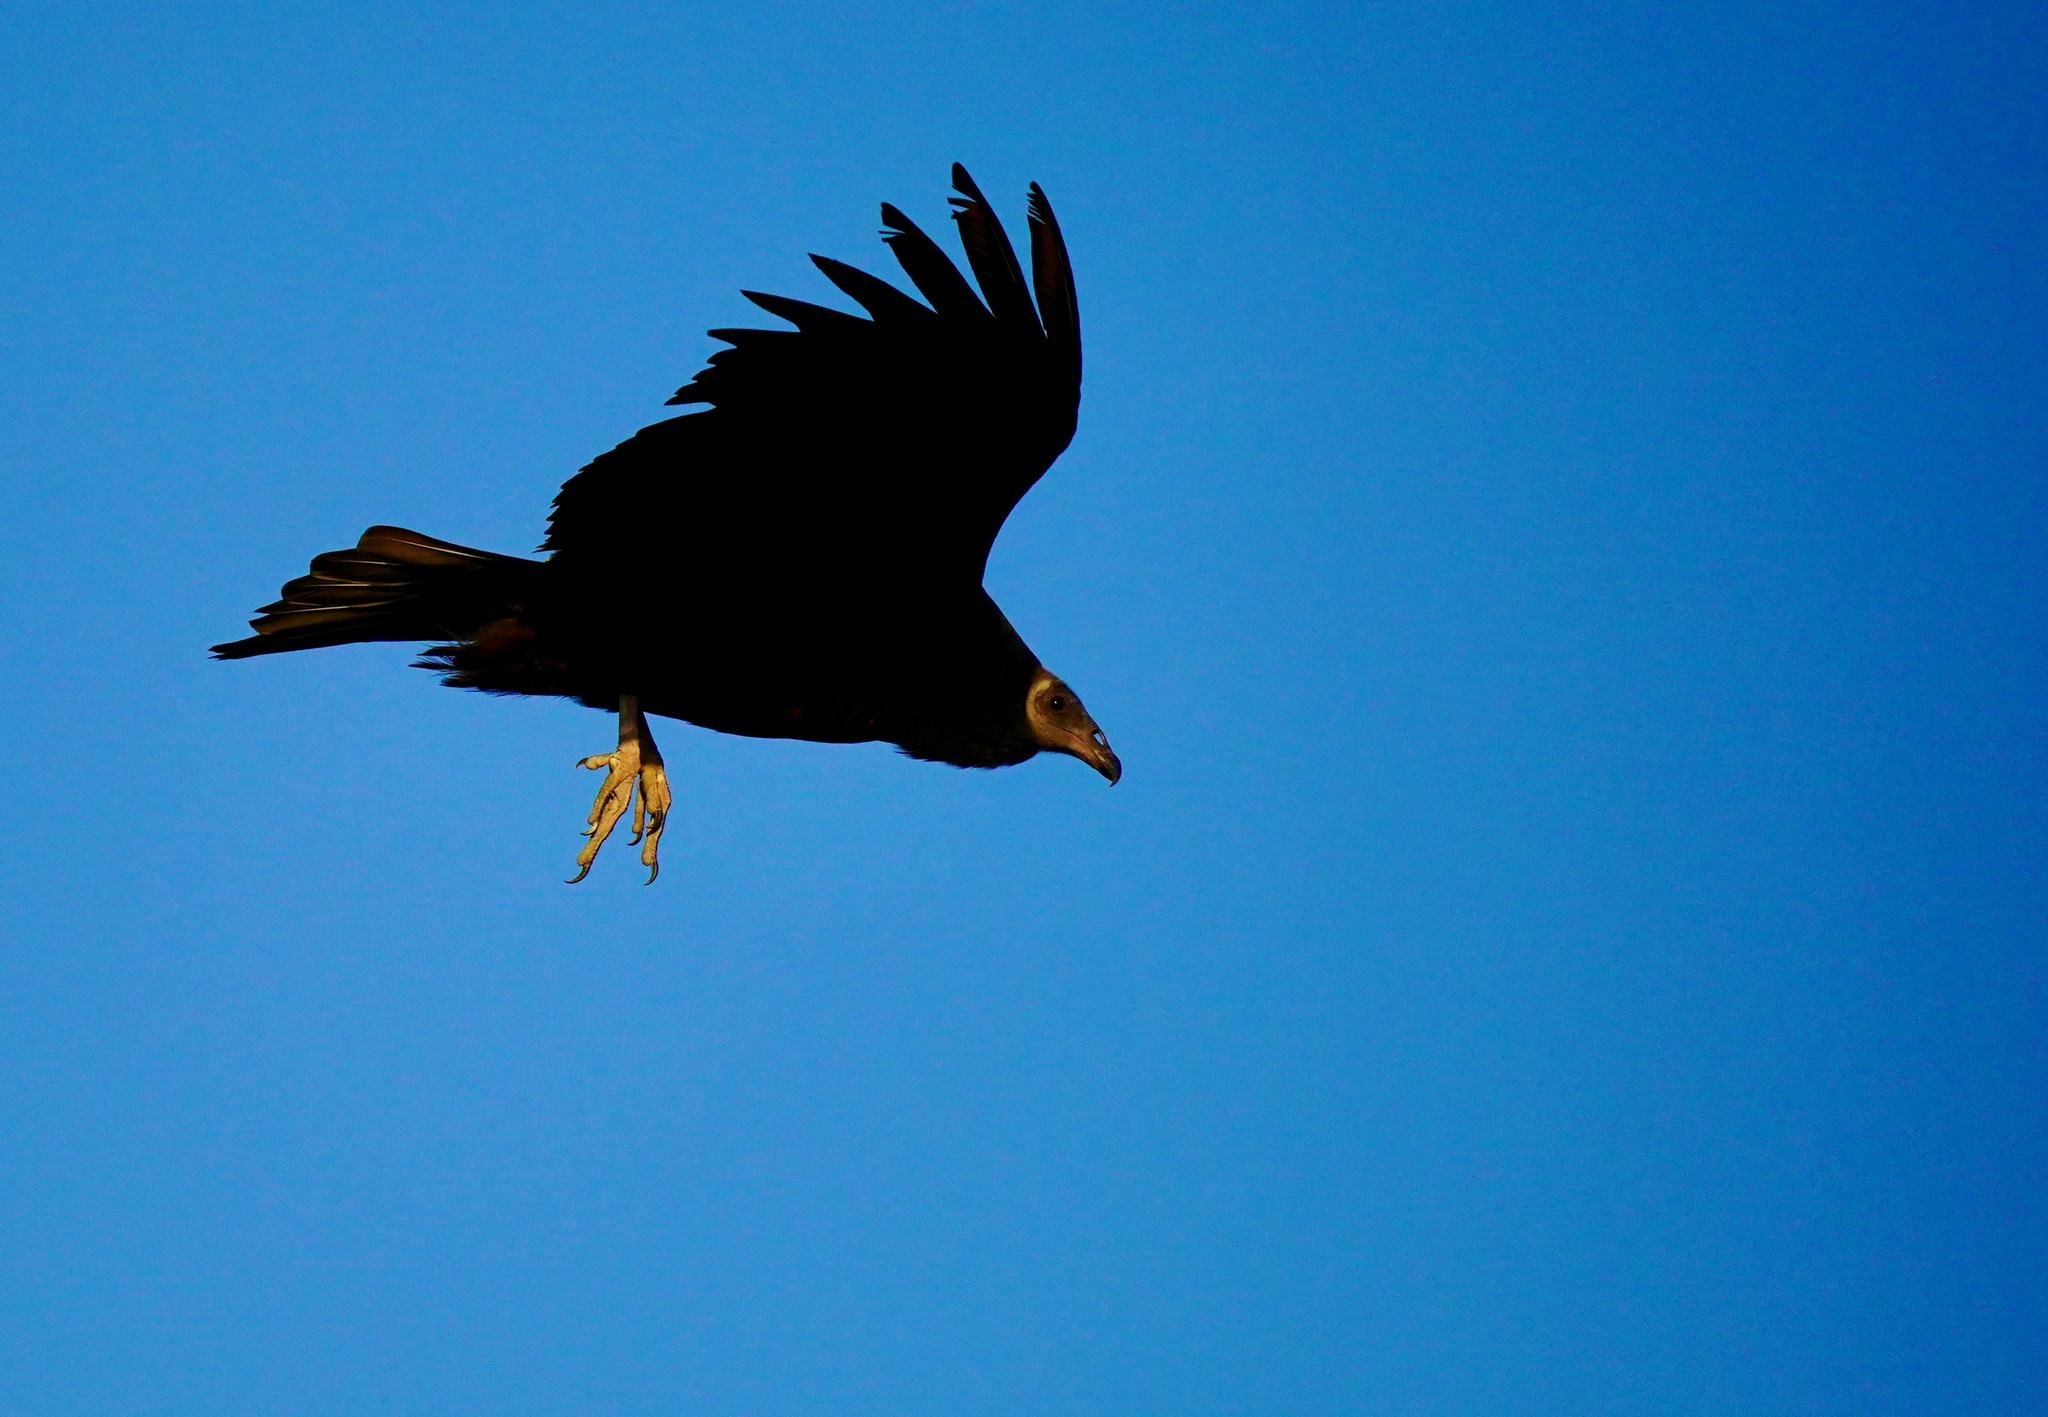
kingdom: Animalia
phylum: Chordata
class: Aves
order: Accipitriformes
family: Cathartidae
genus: Cathartes
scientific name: Cathartes aura
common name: Turkey vulture
